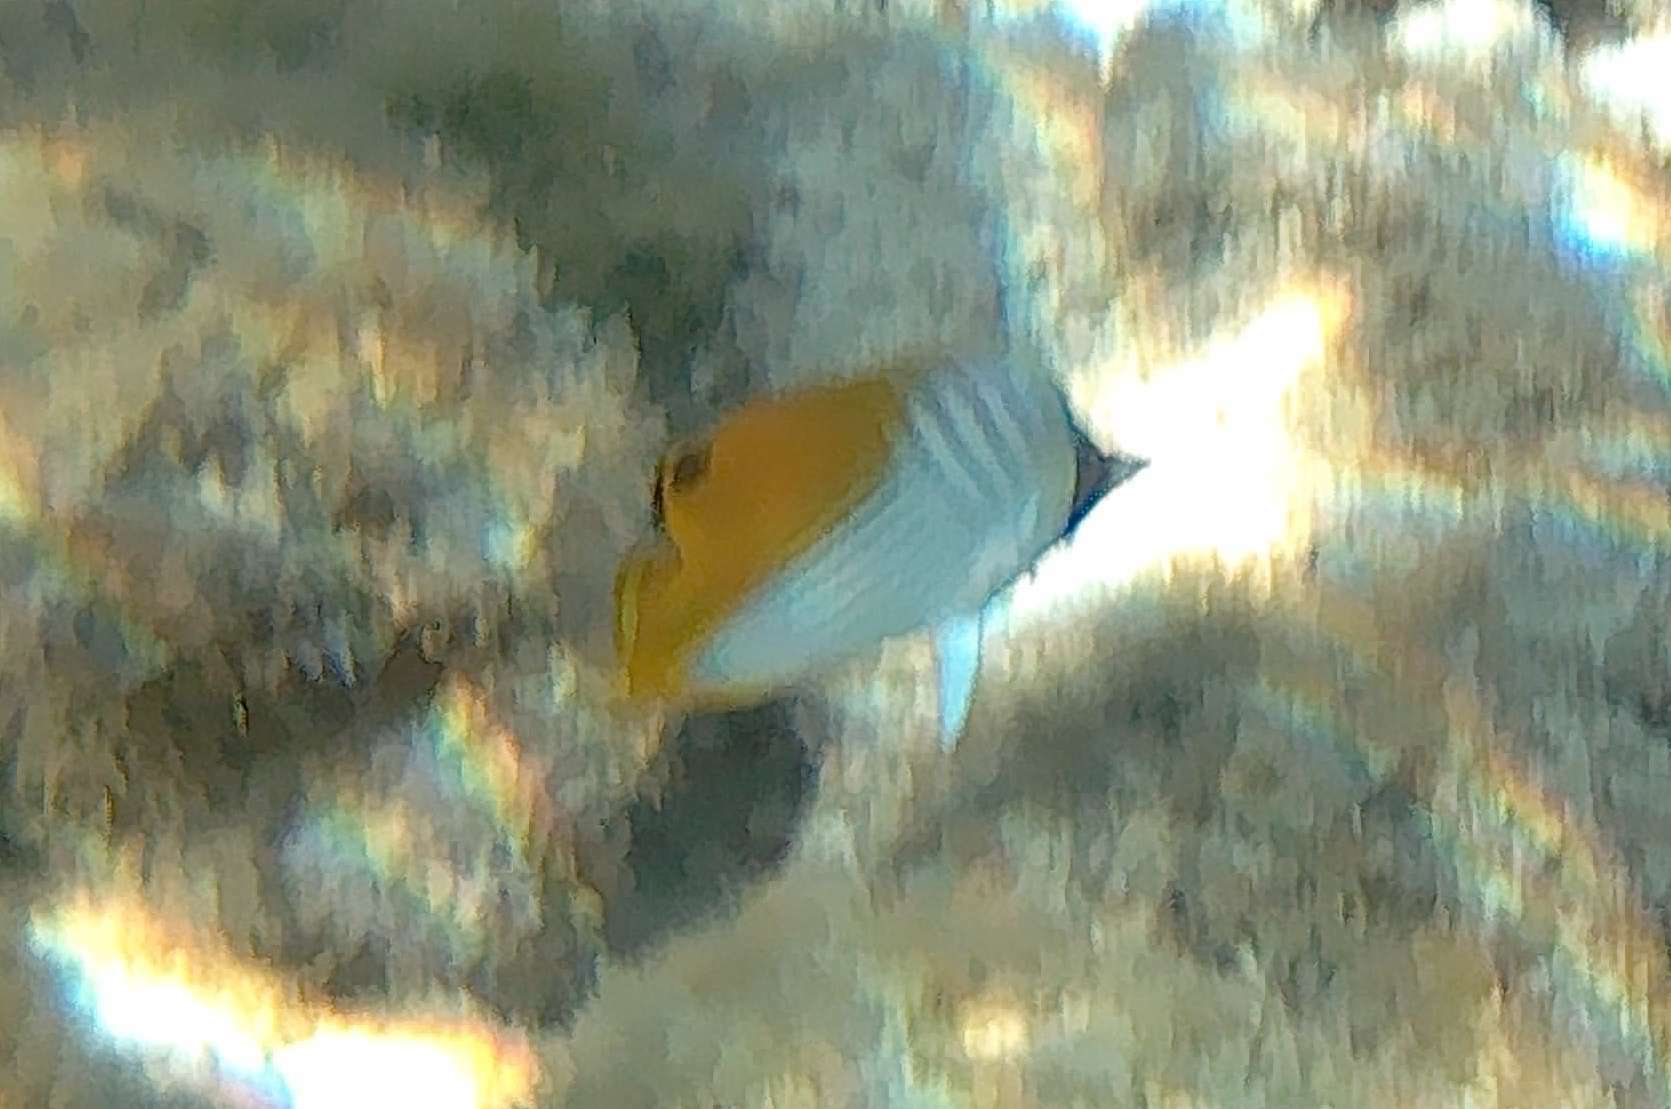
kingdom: Animalia
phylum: Chordata
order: Perciformes
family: Chaetodontidae
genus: Chaetodon
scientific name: Chaetodon auriga
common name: Threadfin butterflyfish
